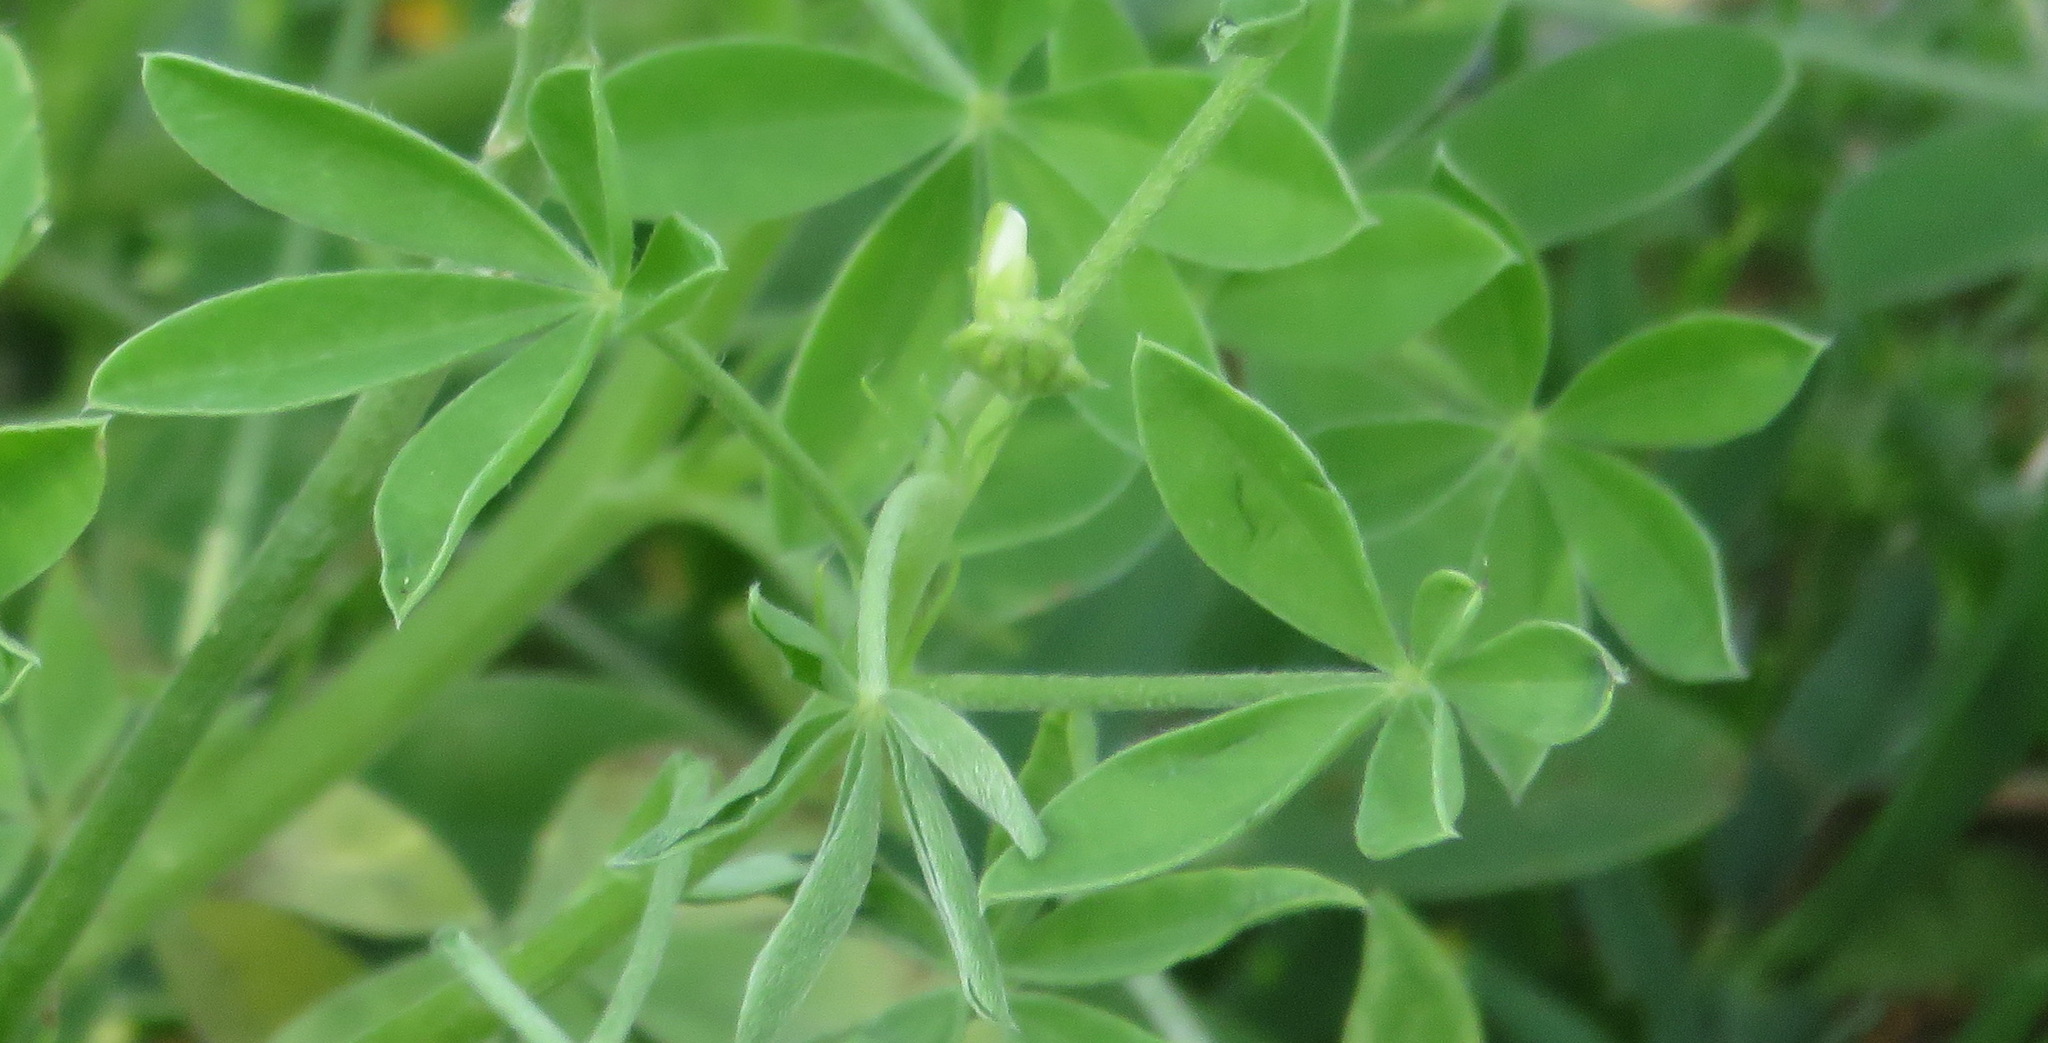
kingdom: Plantae
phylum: Tracheophyta
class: Magnoliopsida
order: Fabales
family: Fabaceae
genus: Lupinus
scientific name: Lupinus texensis
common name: Texas bluebonnet
